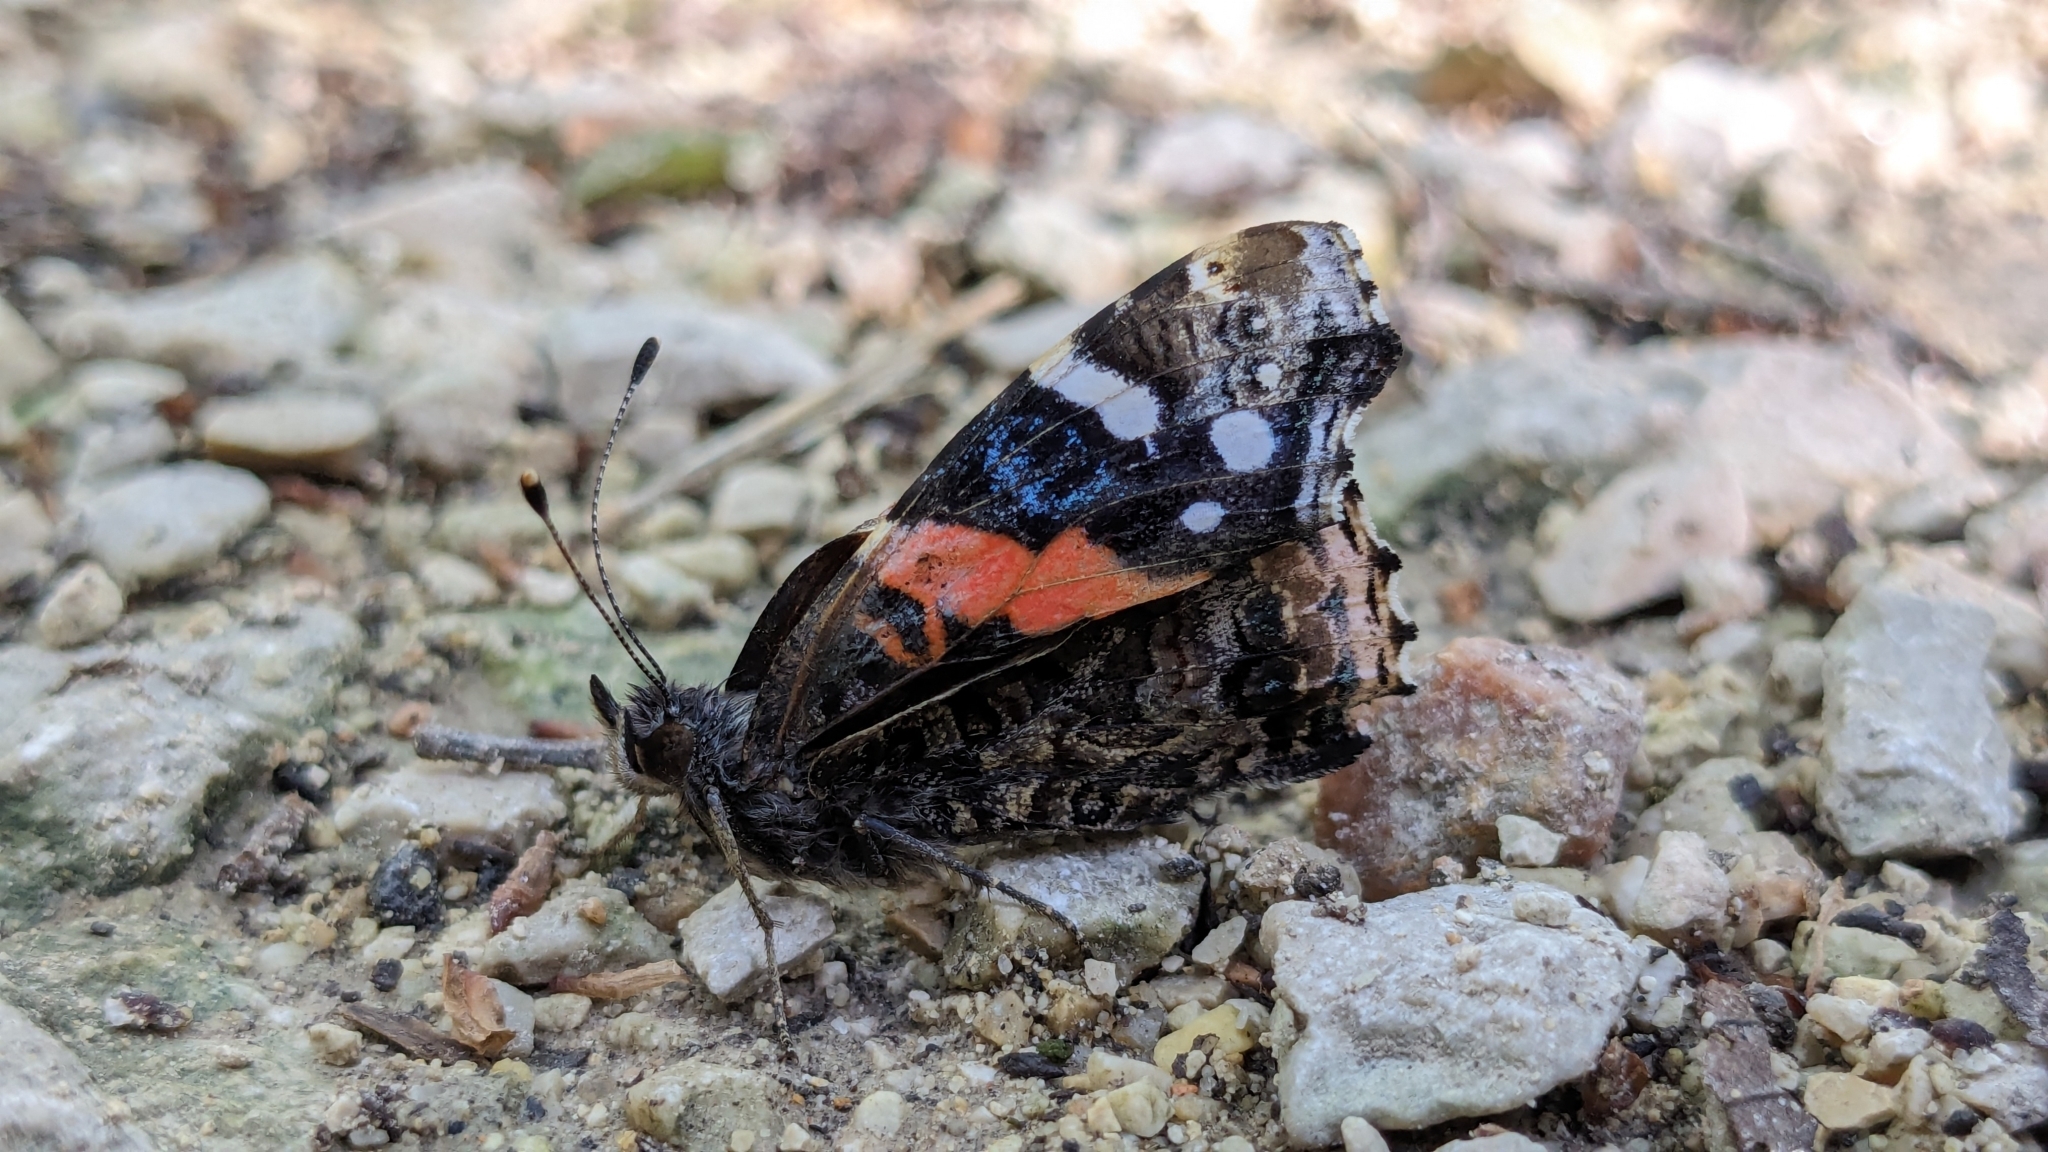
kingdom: Animalia
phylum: Arthropoda
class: Insecta
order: Lepidoptera
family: Nymphalidae
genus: Vanessa
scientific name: Vanessa atalanta
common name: Red admiral
